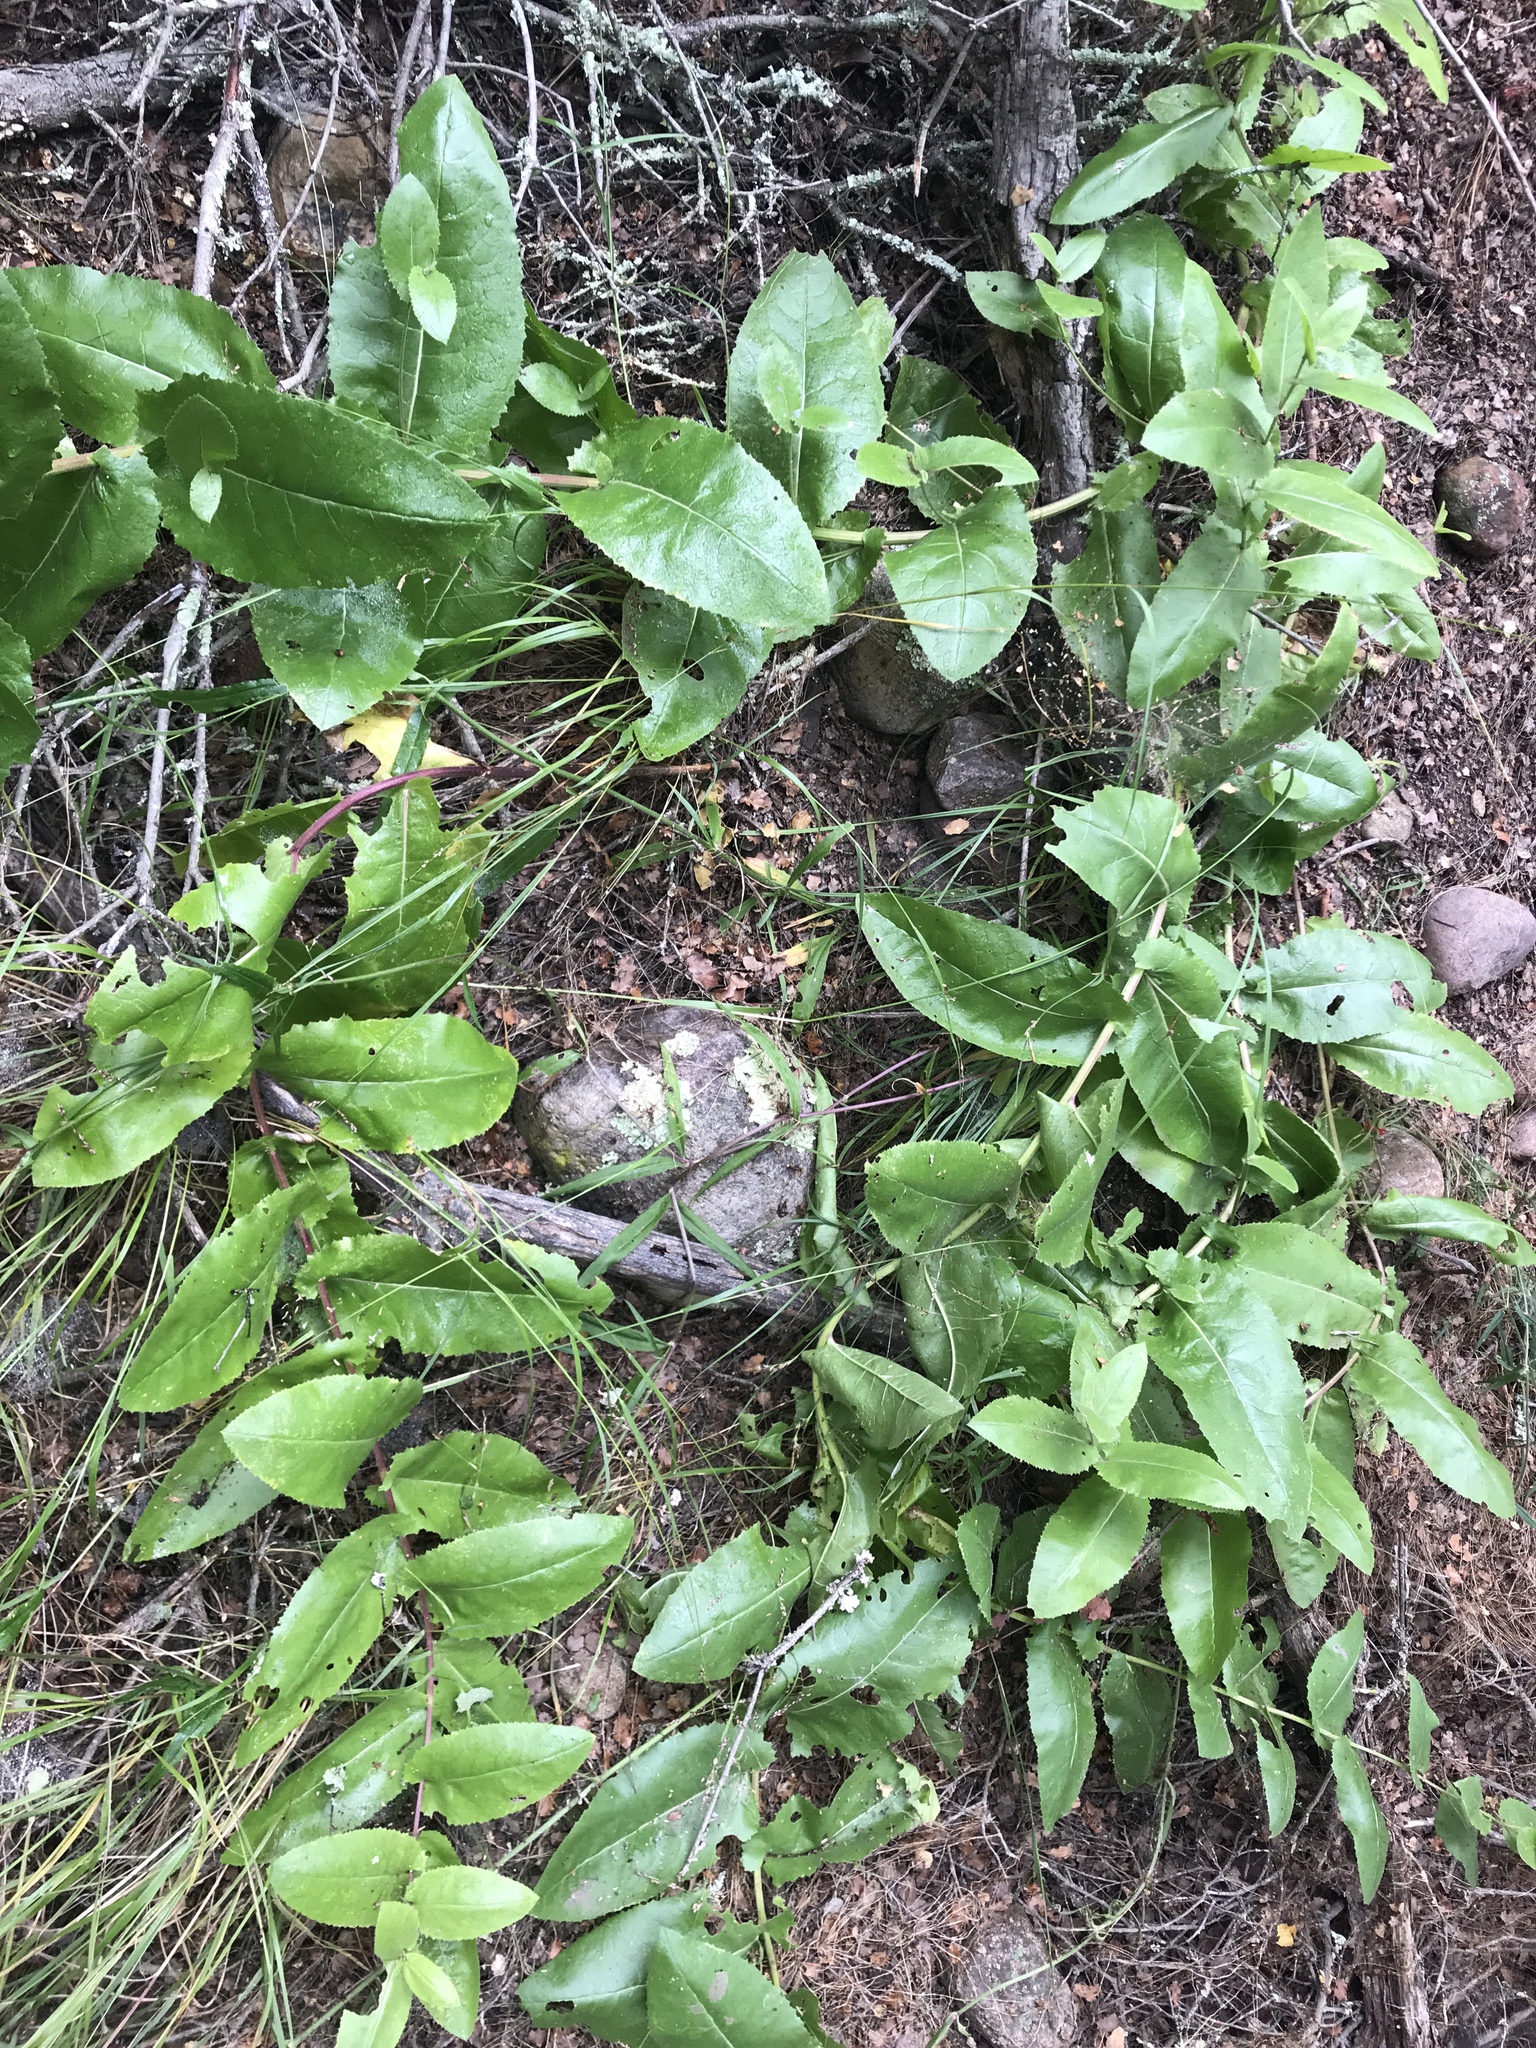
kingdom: Plantae
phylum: Tracheophyta
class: Magnoliopsida
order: Asterales
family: Asteraceae
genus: Acourtia
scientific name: Acourtia microcephala
